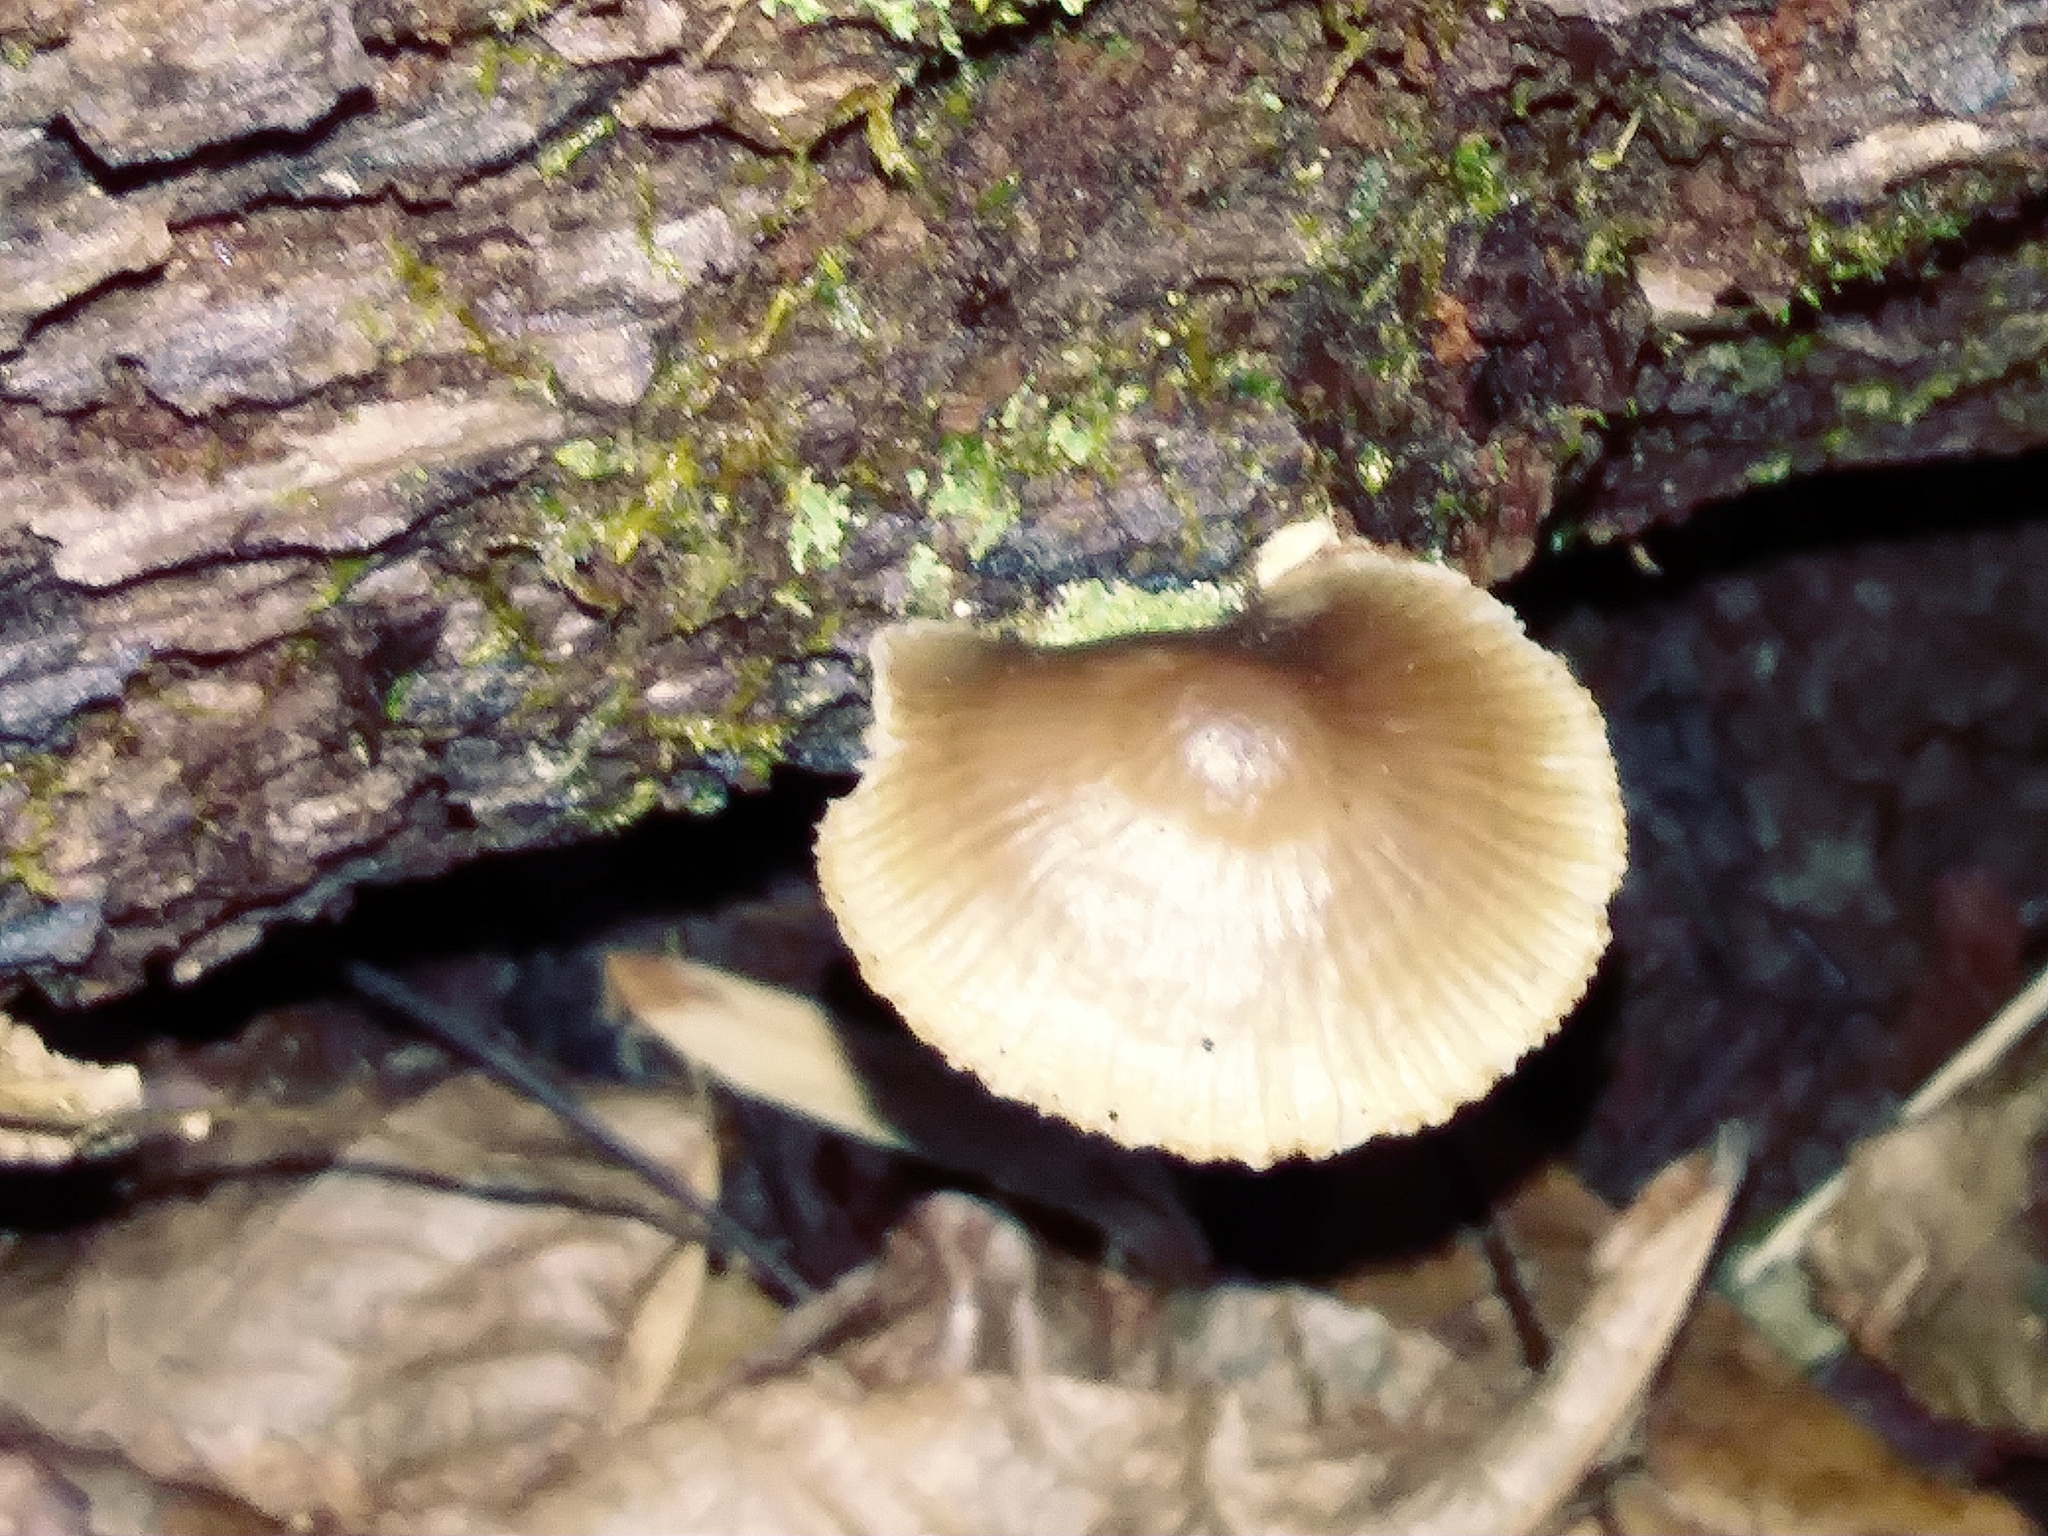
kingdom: Fungi
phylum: Basidiomycota
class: Agaricomycetes
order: Agaricales
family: Mycenaceae
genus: Mycena
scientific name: Mycena galericulata
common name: Bonnet mycena
